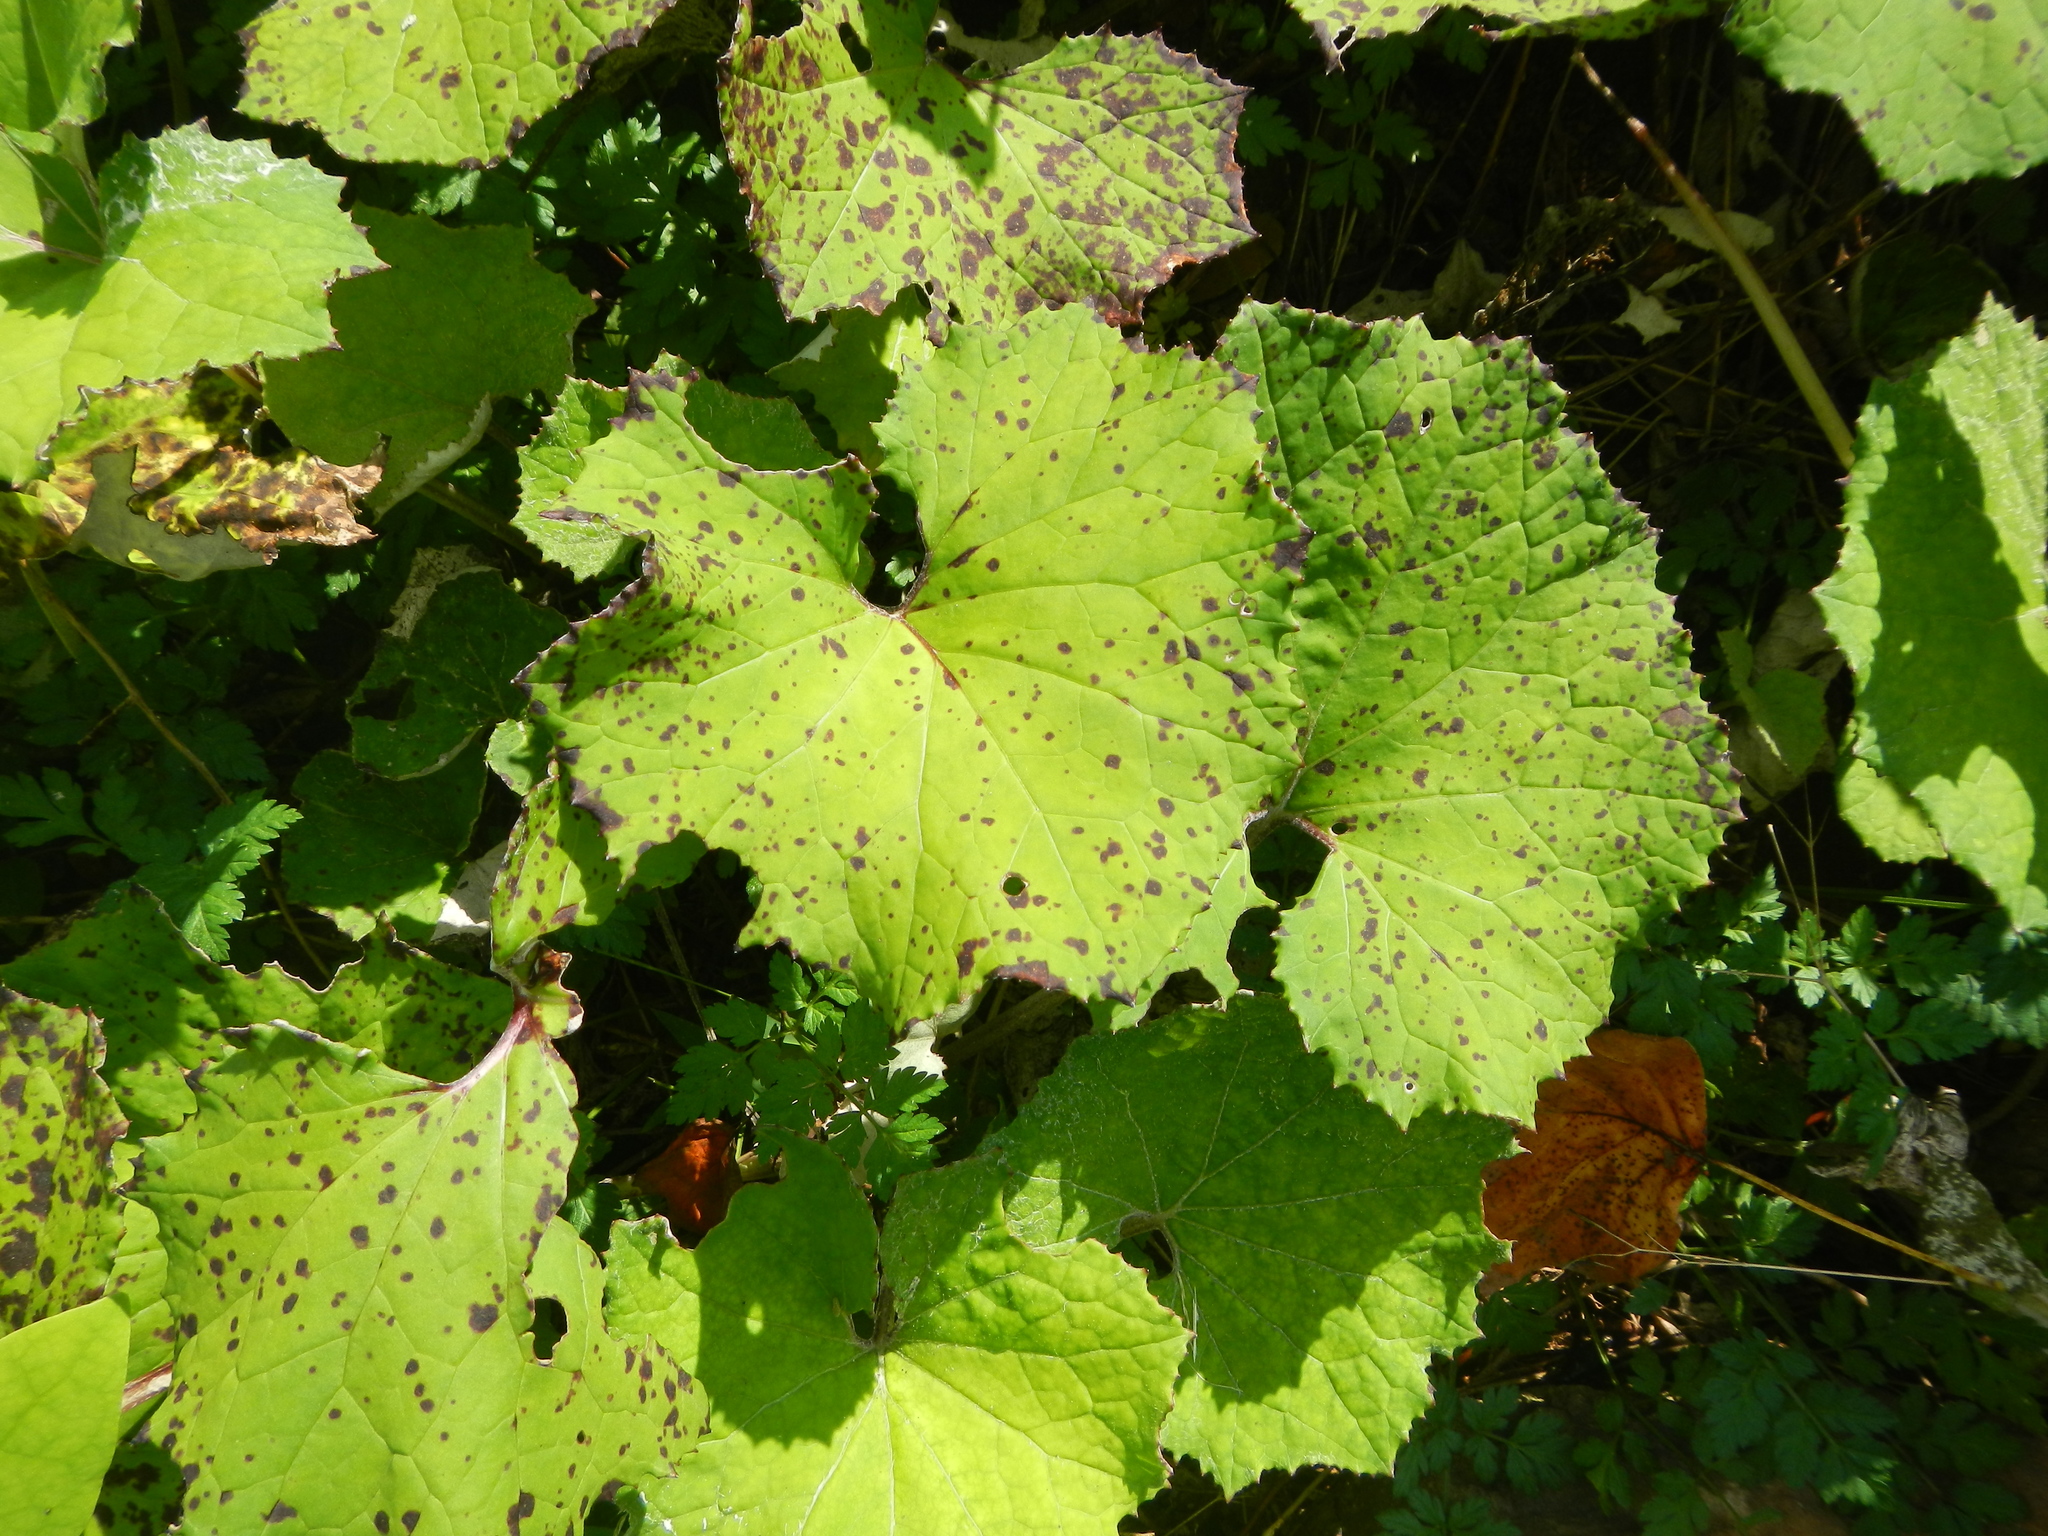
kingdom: Plantae
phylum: Tracheophyta
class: Magnoliopsida
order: Asterales
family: Asteraceae
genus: Tussilago
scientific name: Tussilago farfara
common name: Coltsfoot
